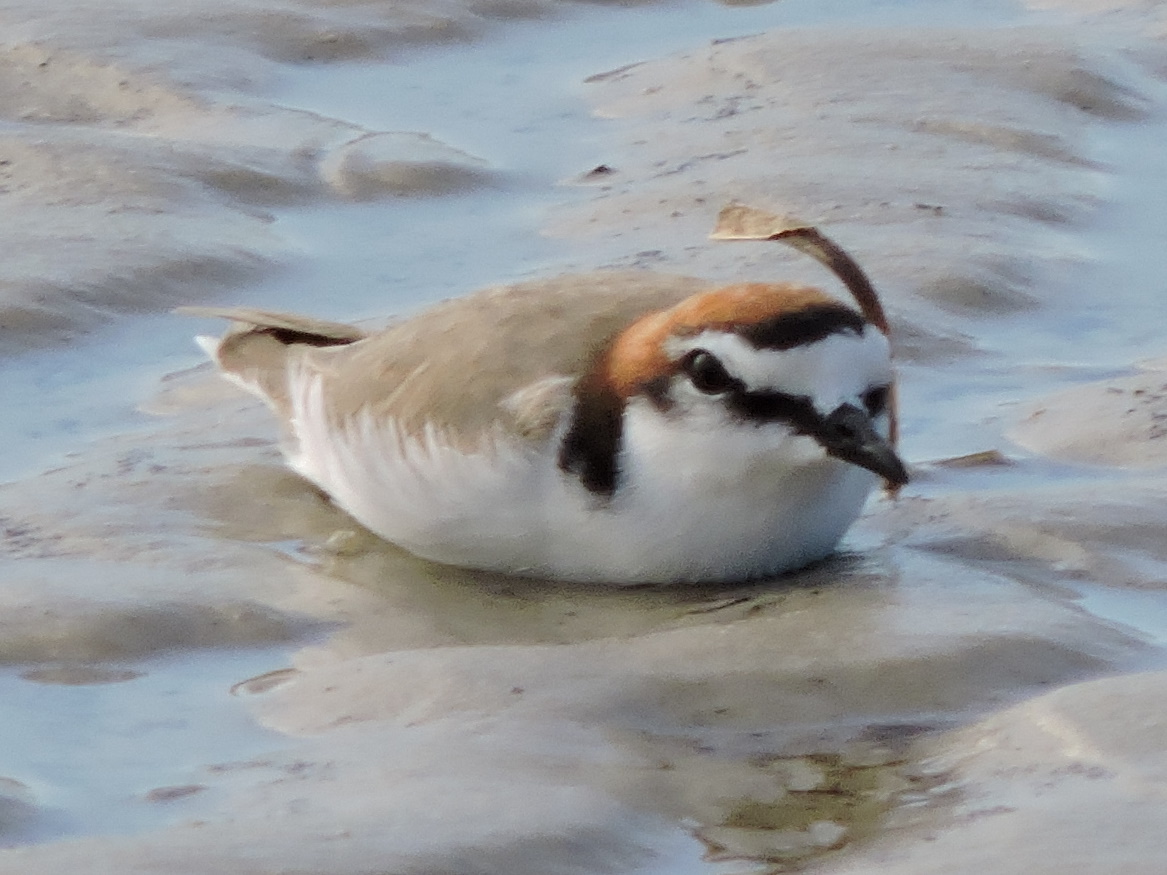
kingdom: Animalia
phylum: Chordata
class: Aves
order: Charadriiformes
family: Charadriidae
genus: Anarhynchus
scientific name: Anarhynchus
